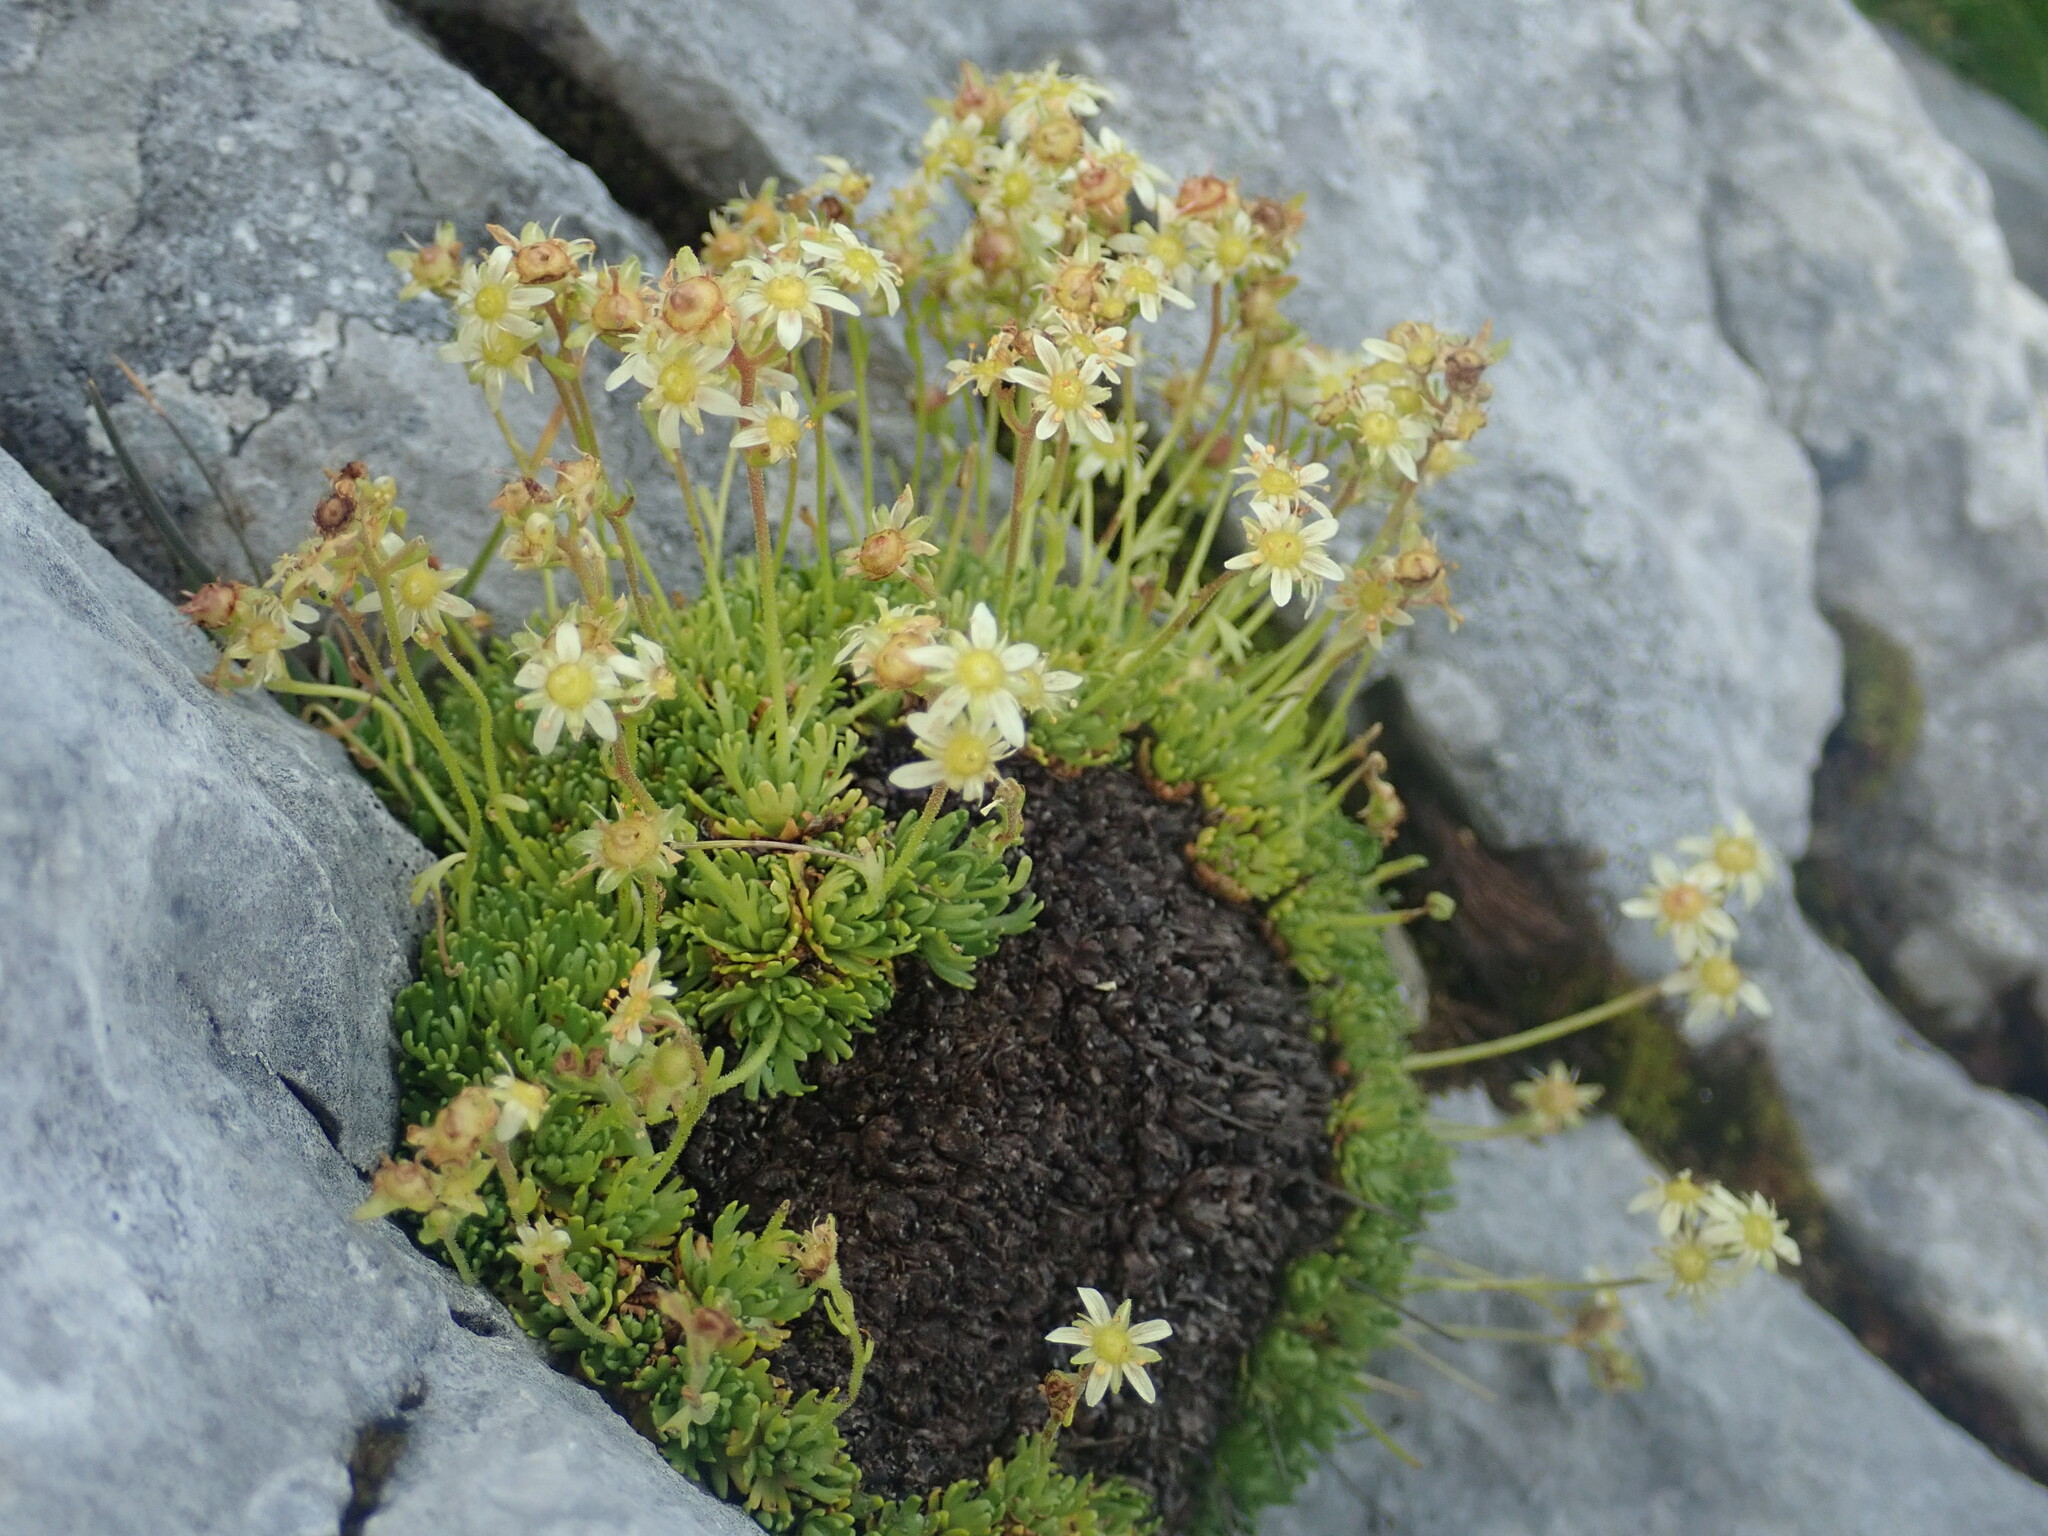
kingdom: Plantae
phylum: Tracheophyta
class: Magnoliopsida
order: Saxifragales
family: Saxifragaceae
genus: Saxifraga
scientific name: Saxifraga moschata
